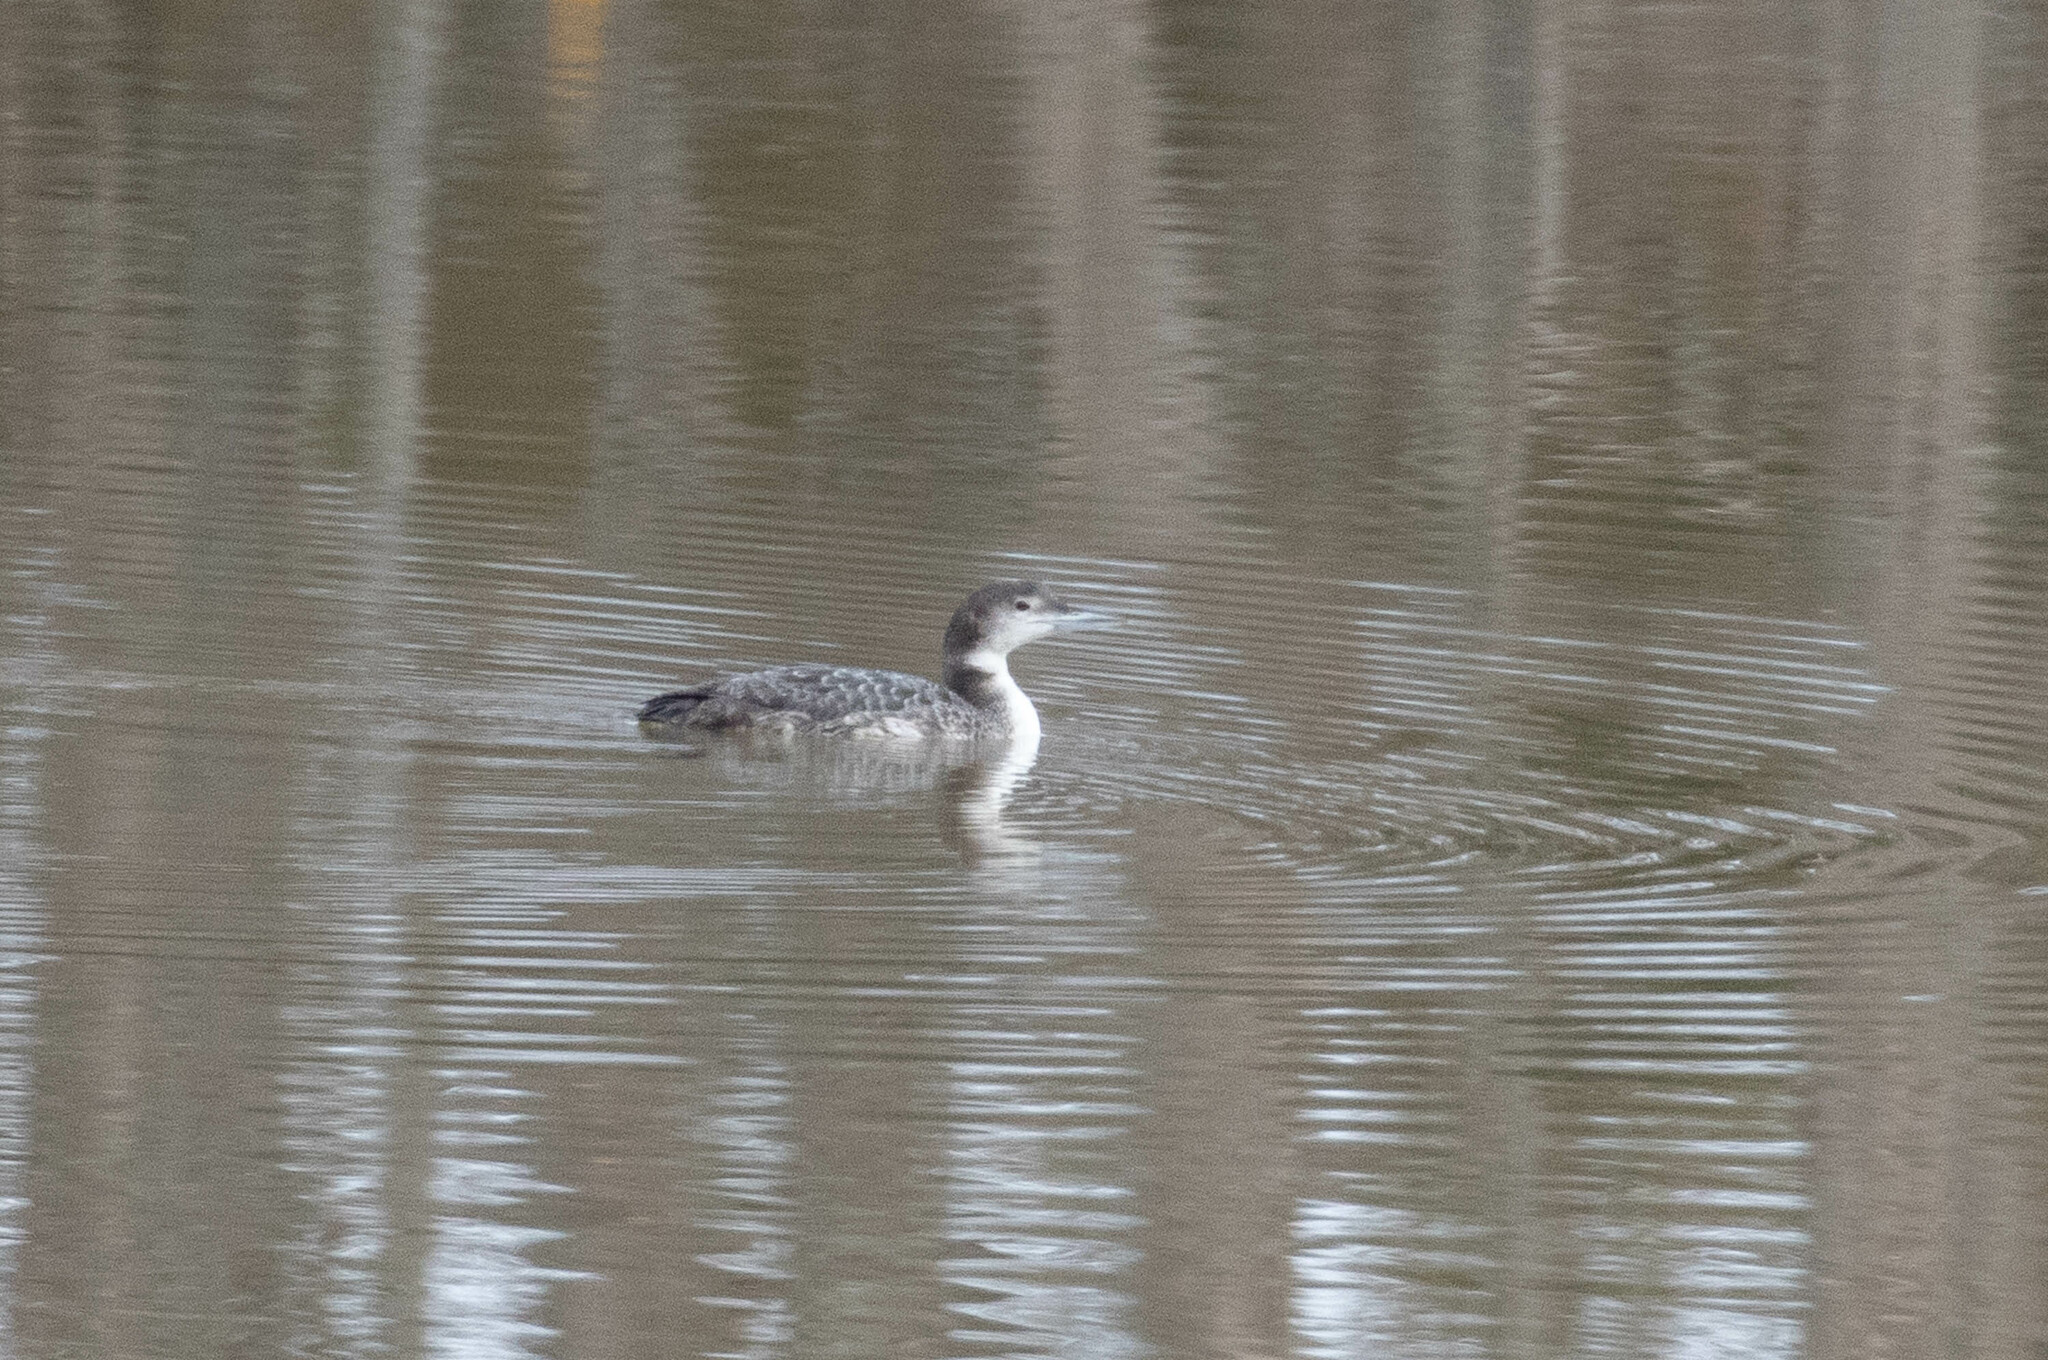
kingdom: Animalia
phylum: Chordata
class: Aves
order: Gaviiformes
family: Gaviidae
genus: Gavia
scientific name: Gavia immer
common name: Common loon
